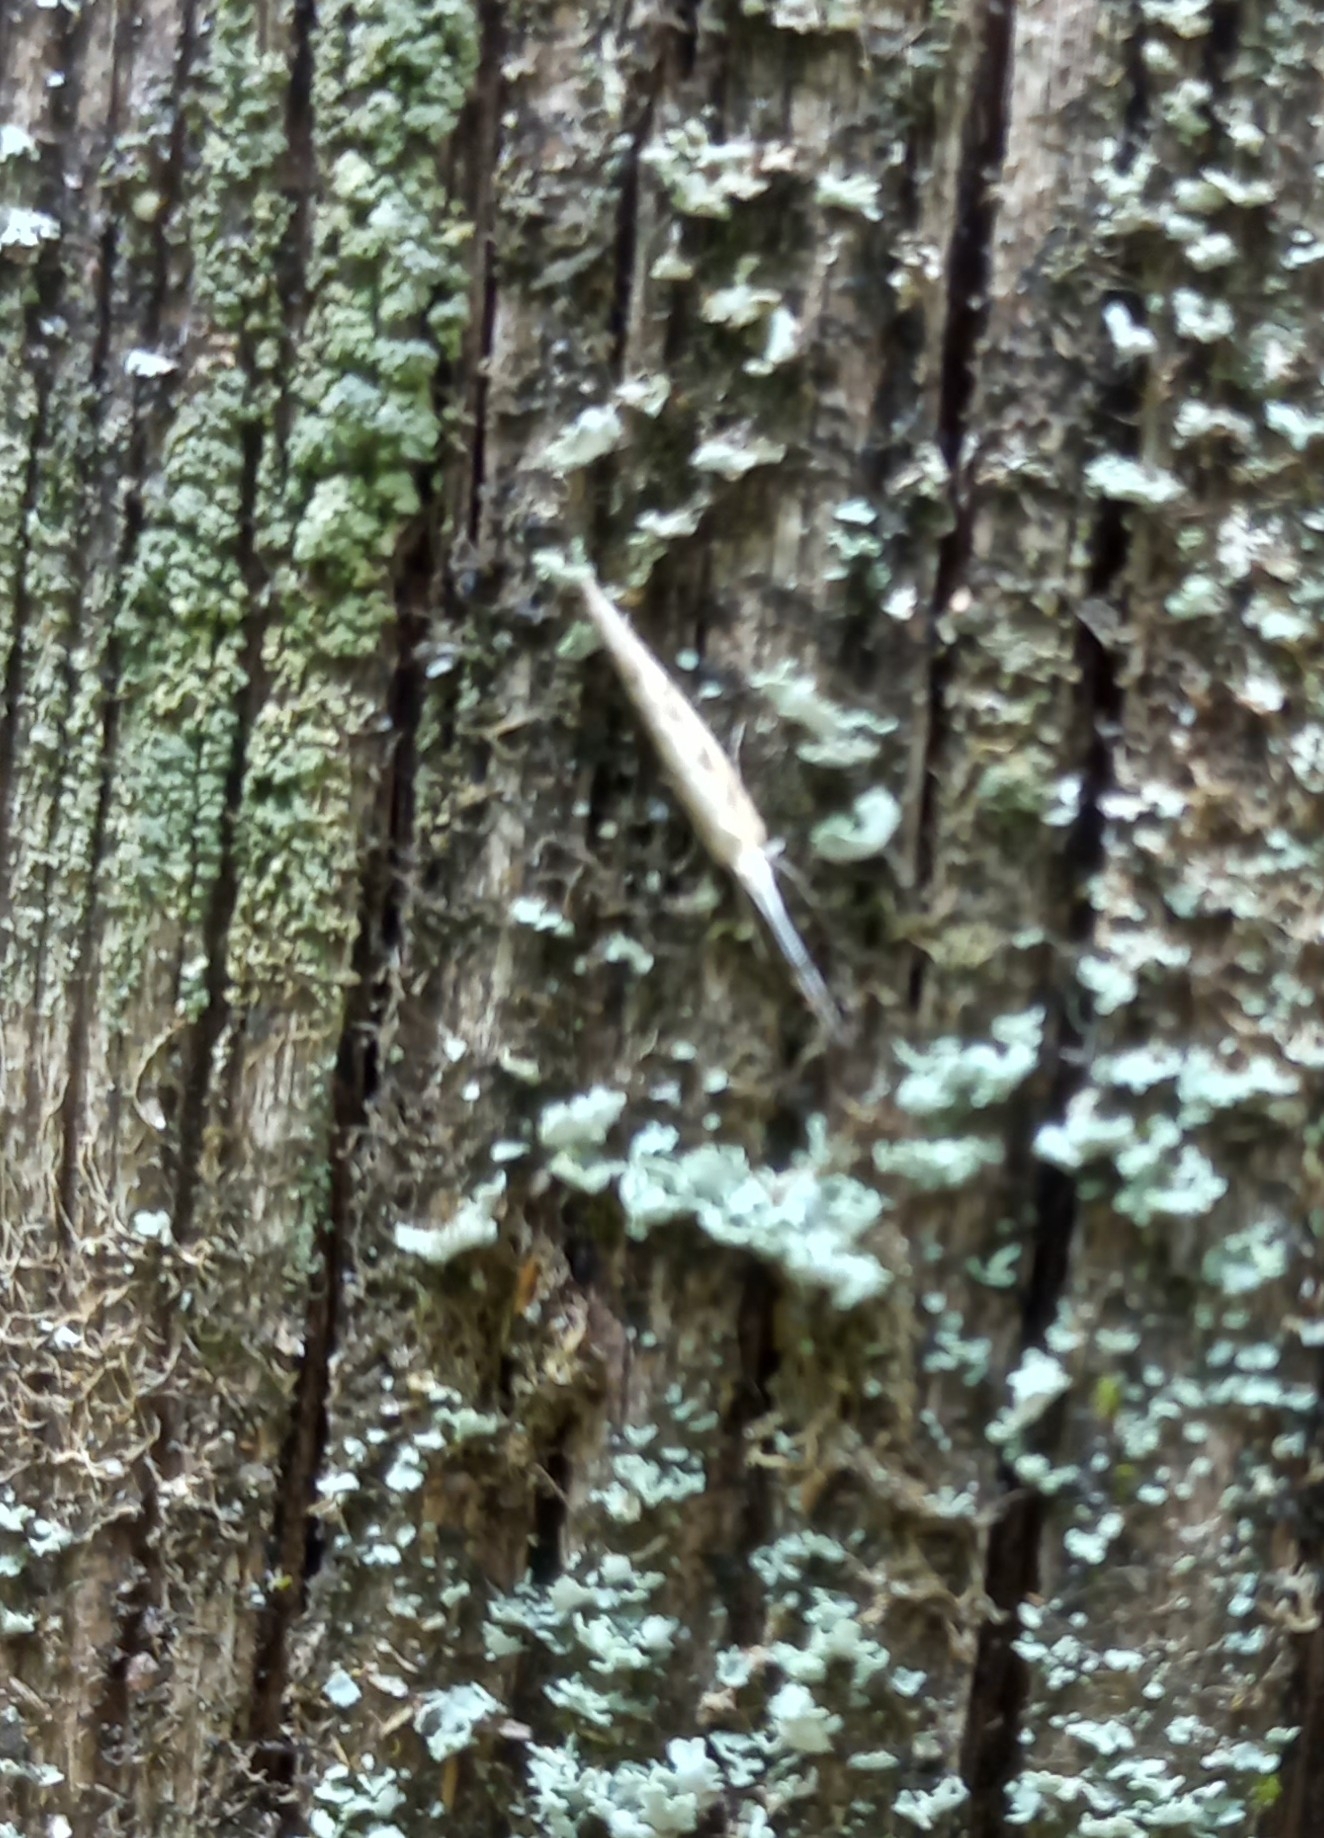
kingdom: Animalia
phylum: Arthropoda
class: Insecta
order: Lepidoptera
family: Plutellidae
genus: Plutella
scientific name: Plutella xylostella
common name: Diamond-back moth
